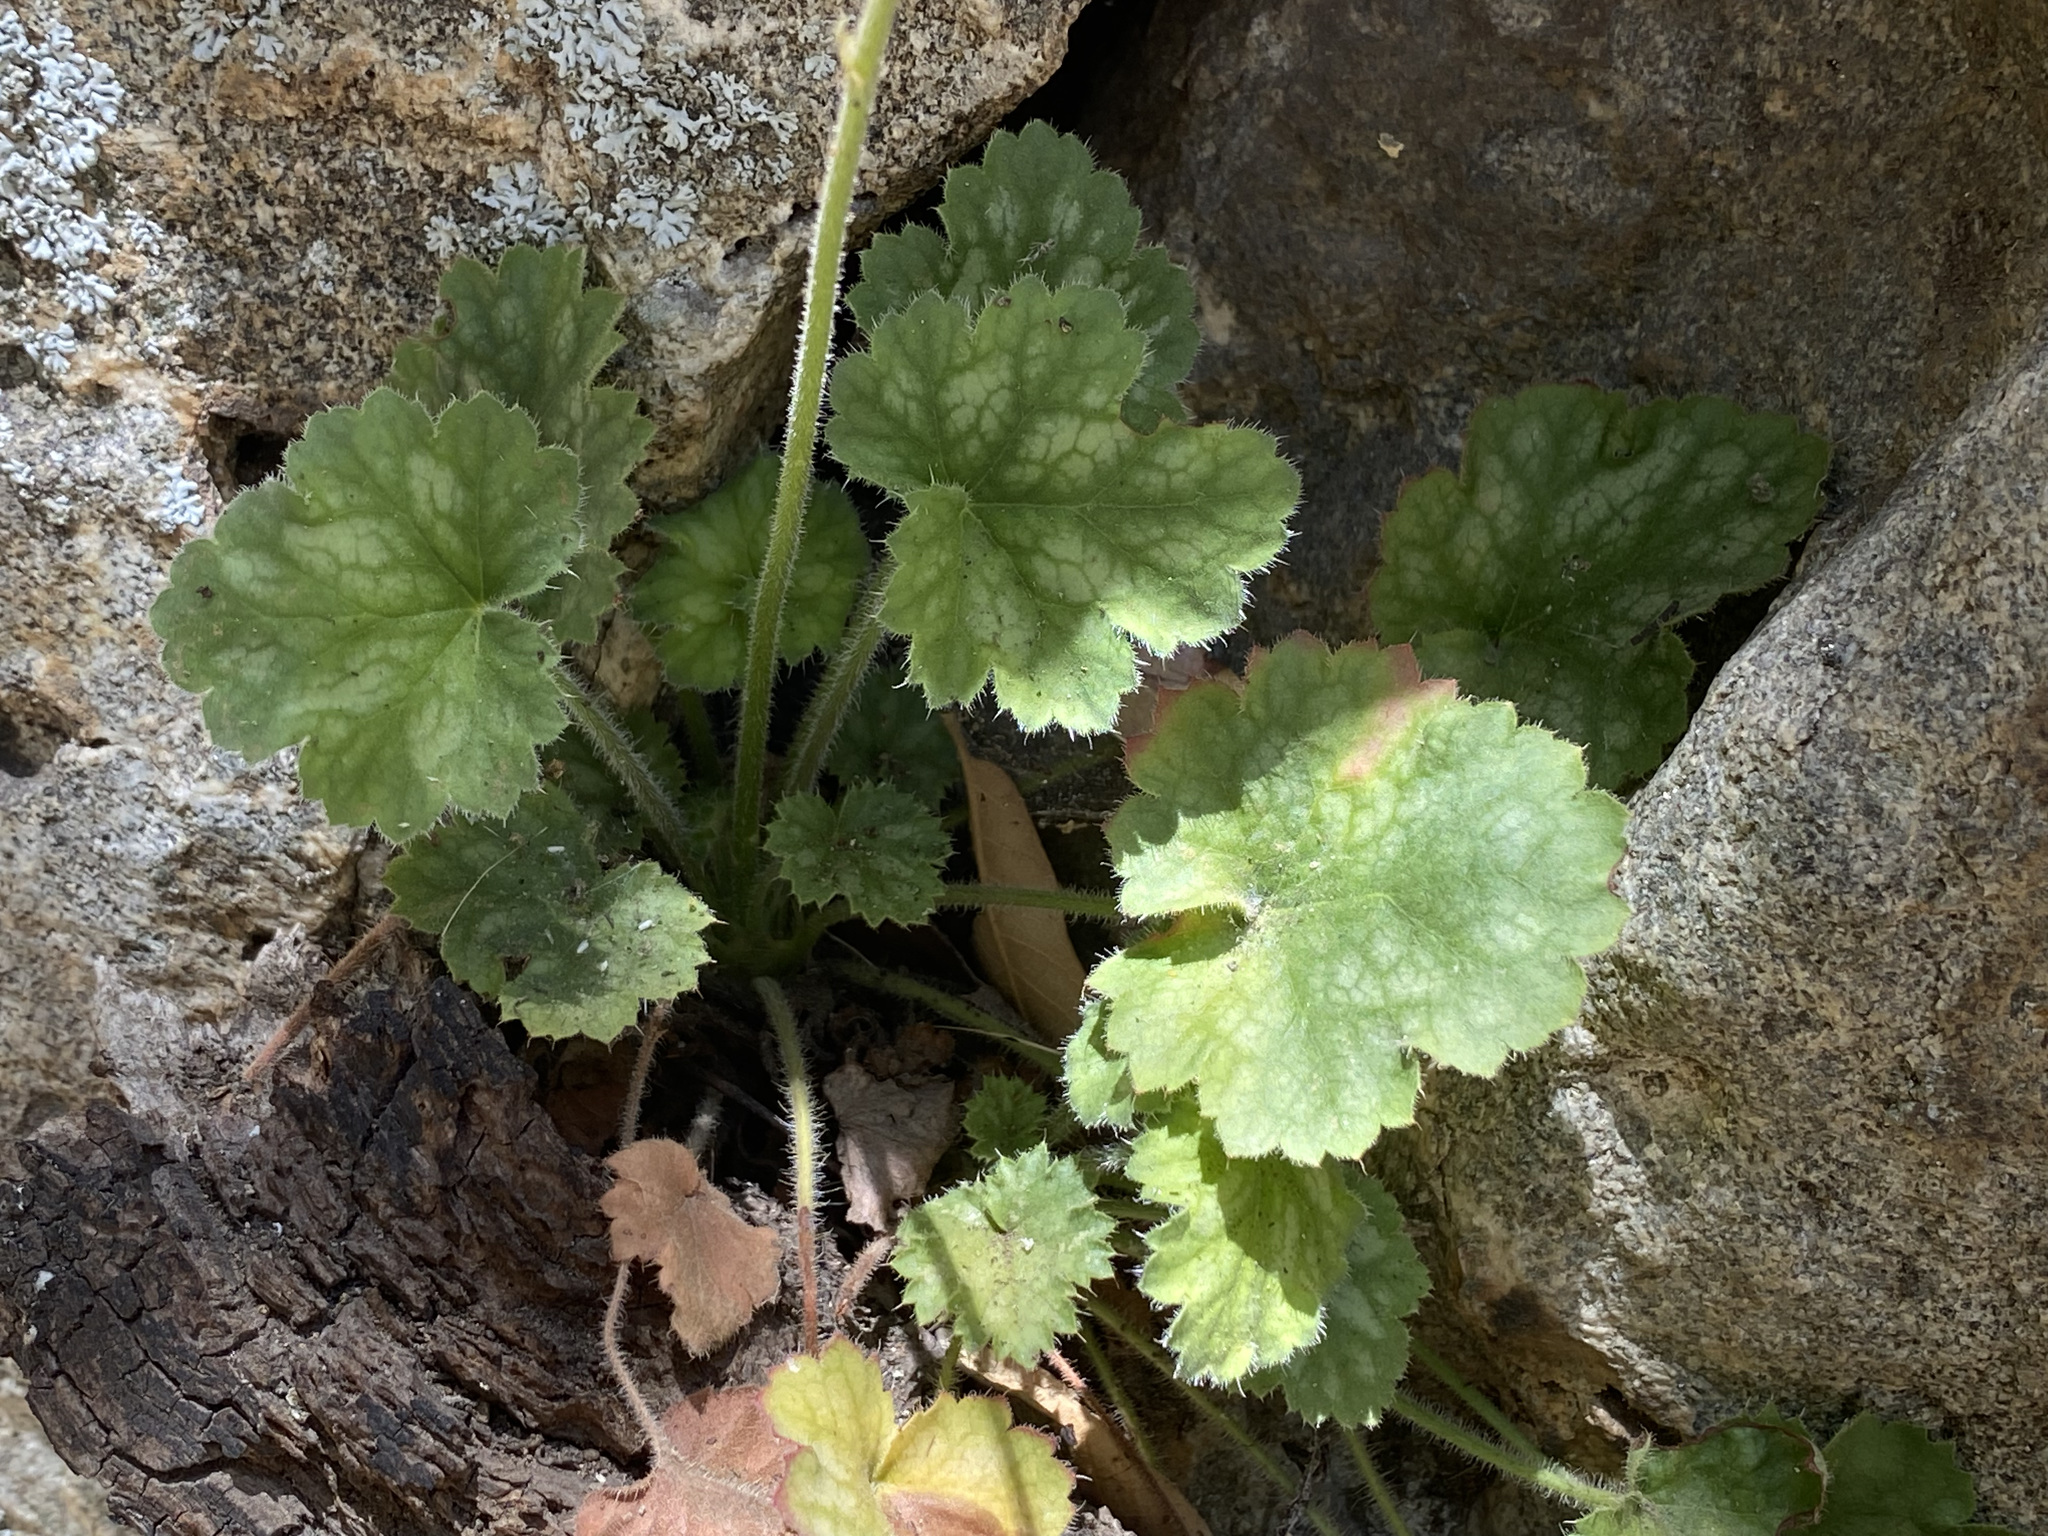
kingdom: Plantae
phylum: Tracheophyta
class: Magnoliopsida
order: Saxifragales
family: Saxifragaceae
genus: Heuchera
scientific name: Heuchera sanguinea
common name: Coralbells
